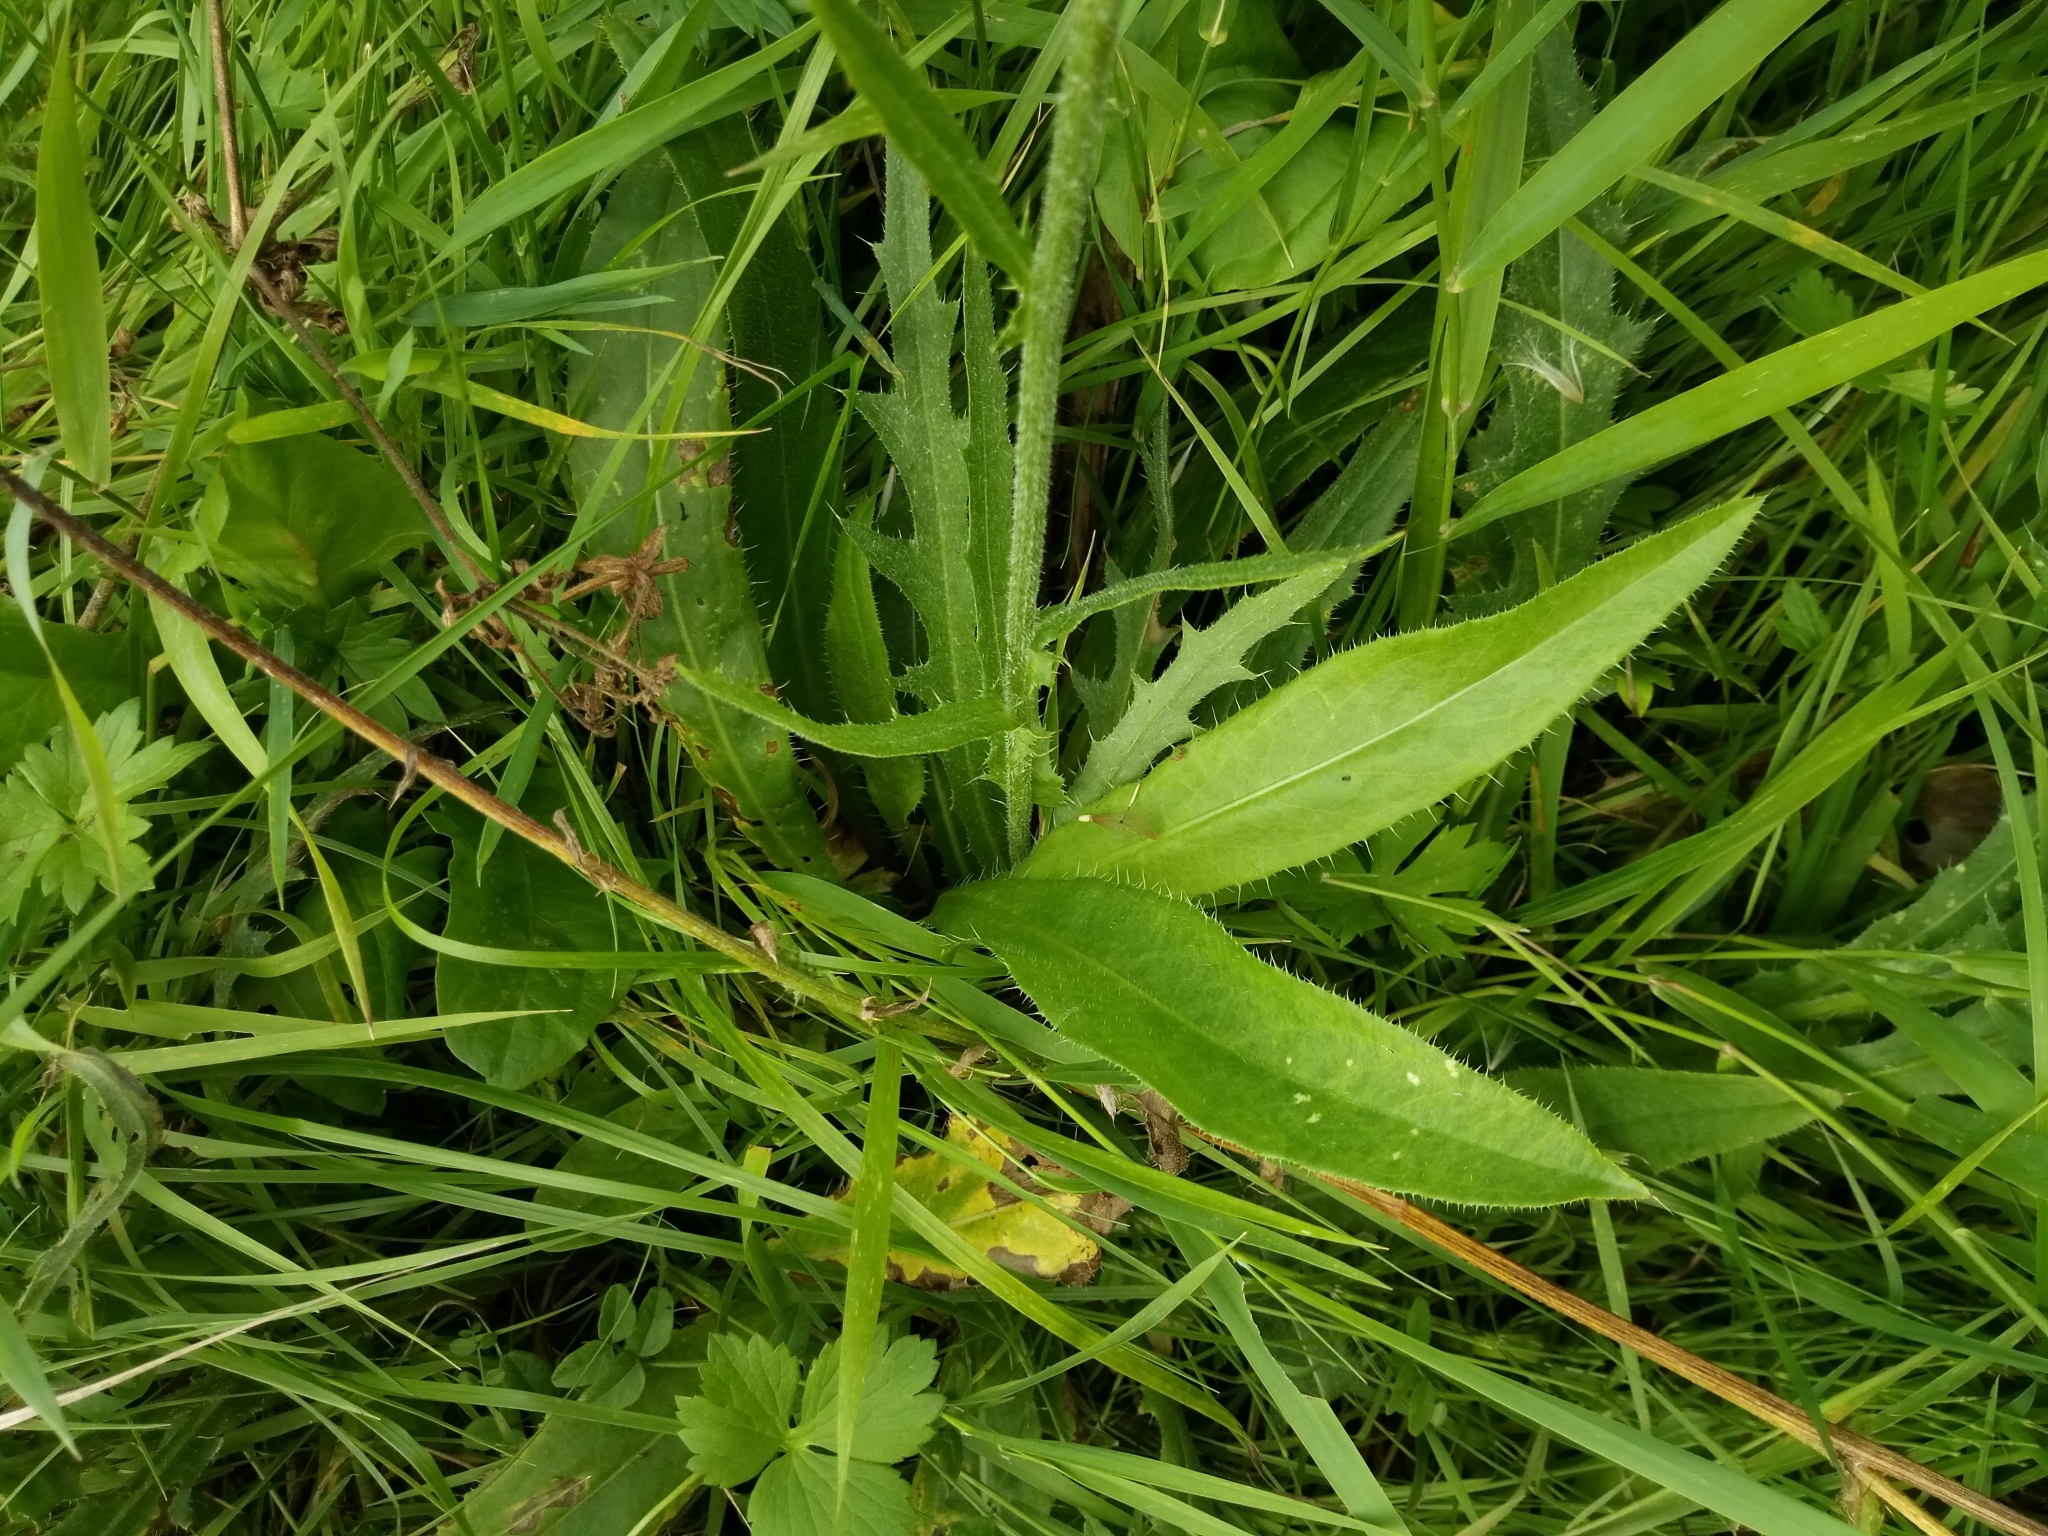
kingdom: Plantae
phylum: Tracheophyta
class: Magnoliopsida
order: Asterales
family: Asteraceae
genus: Cirsium
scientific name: Cirsium canum
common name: Queen anne's thistle
